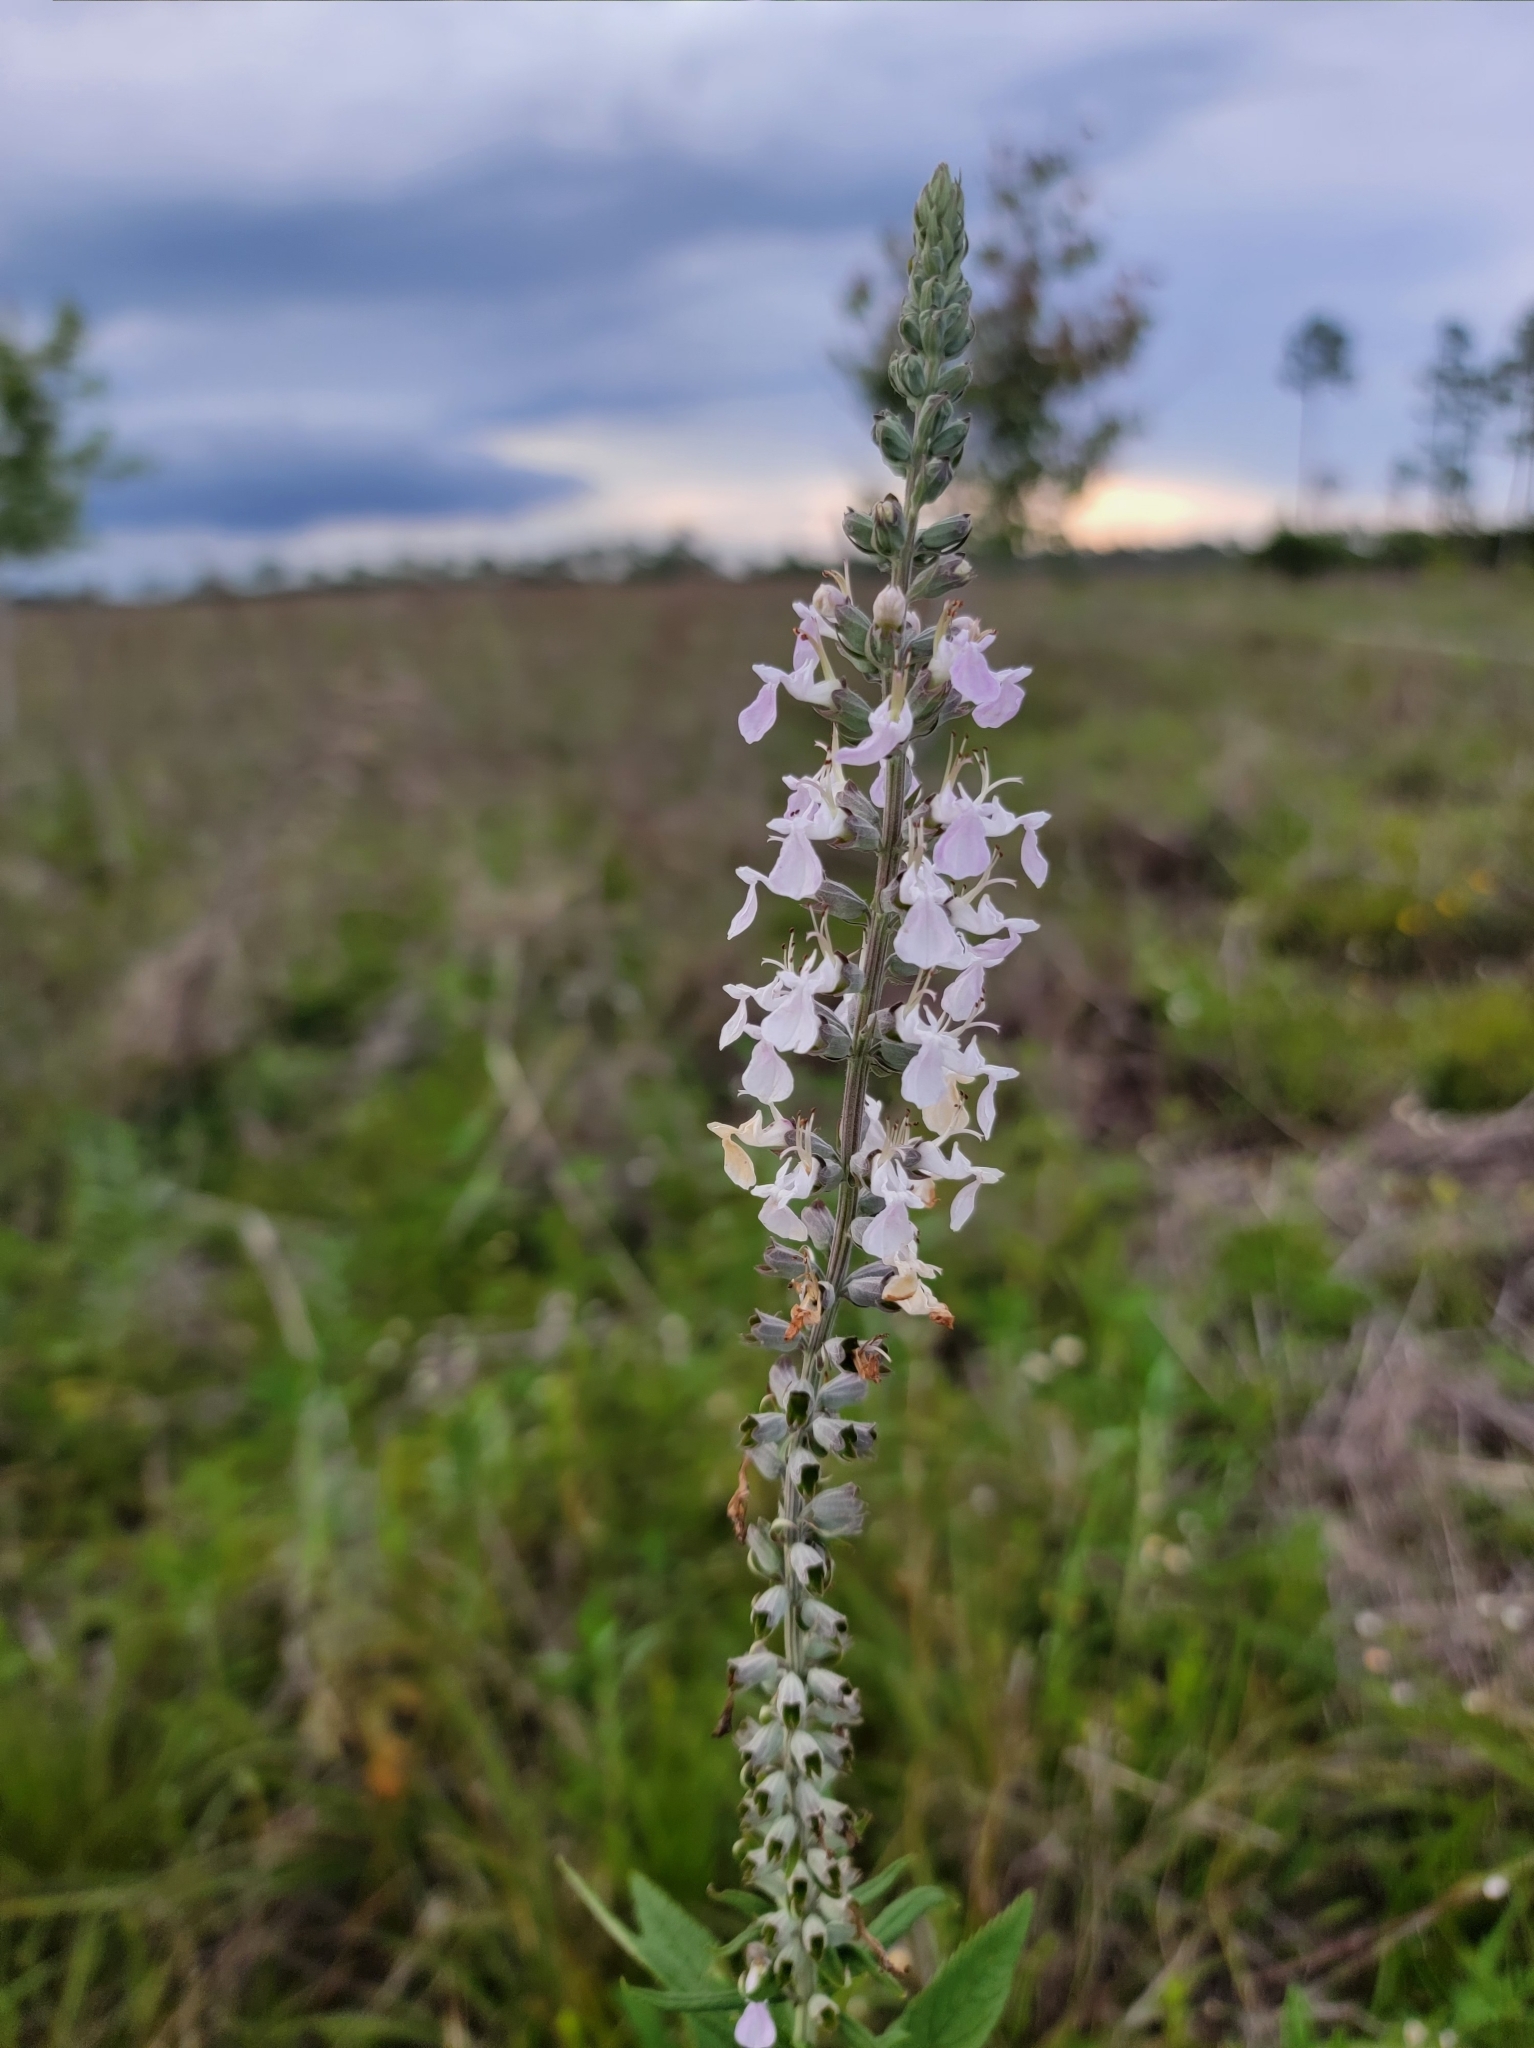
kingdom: Plantae
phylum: Tracheophyta
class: Magnoliopsida
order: Lamiales
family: Lamiaceae
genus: Teucrium
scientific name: Teucrium canadense
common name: American germander
